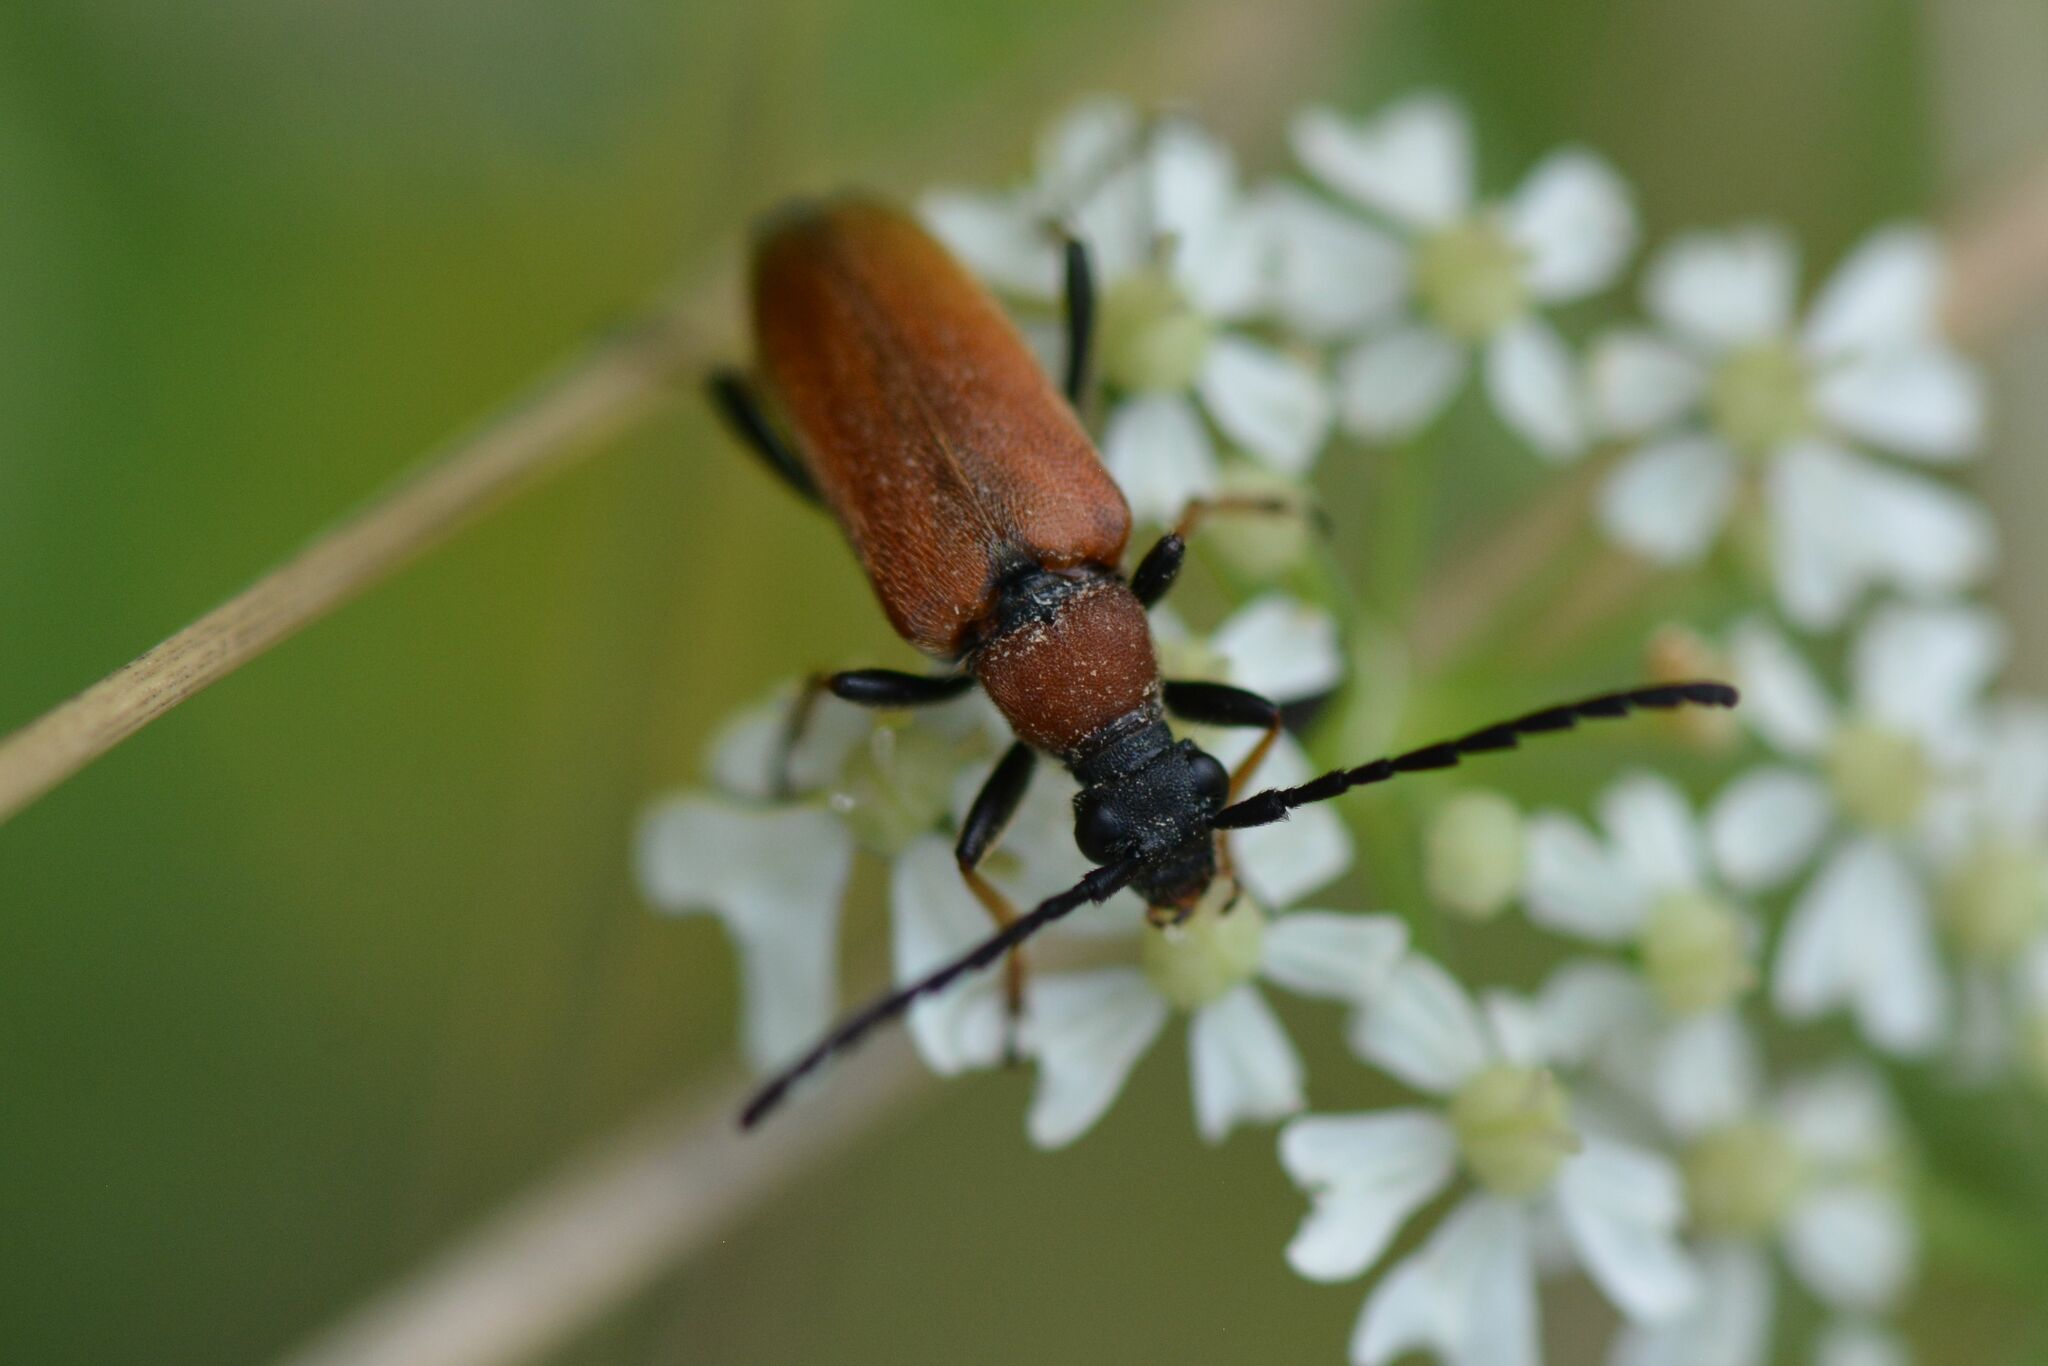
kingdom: Animalia
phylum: Arthropoda
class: Insecta
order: Coleoptera
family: Cerambycidae
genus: Stictoleptura
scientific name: Stictoleptura rubra
